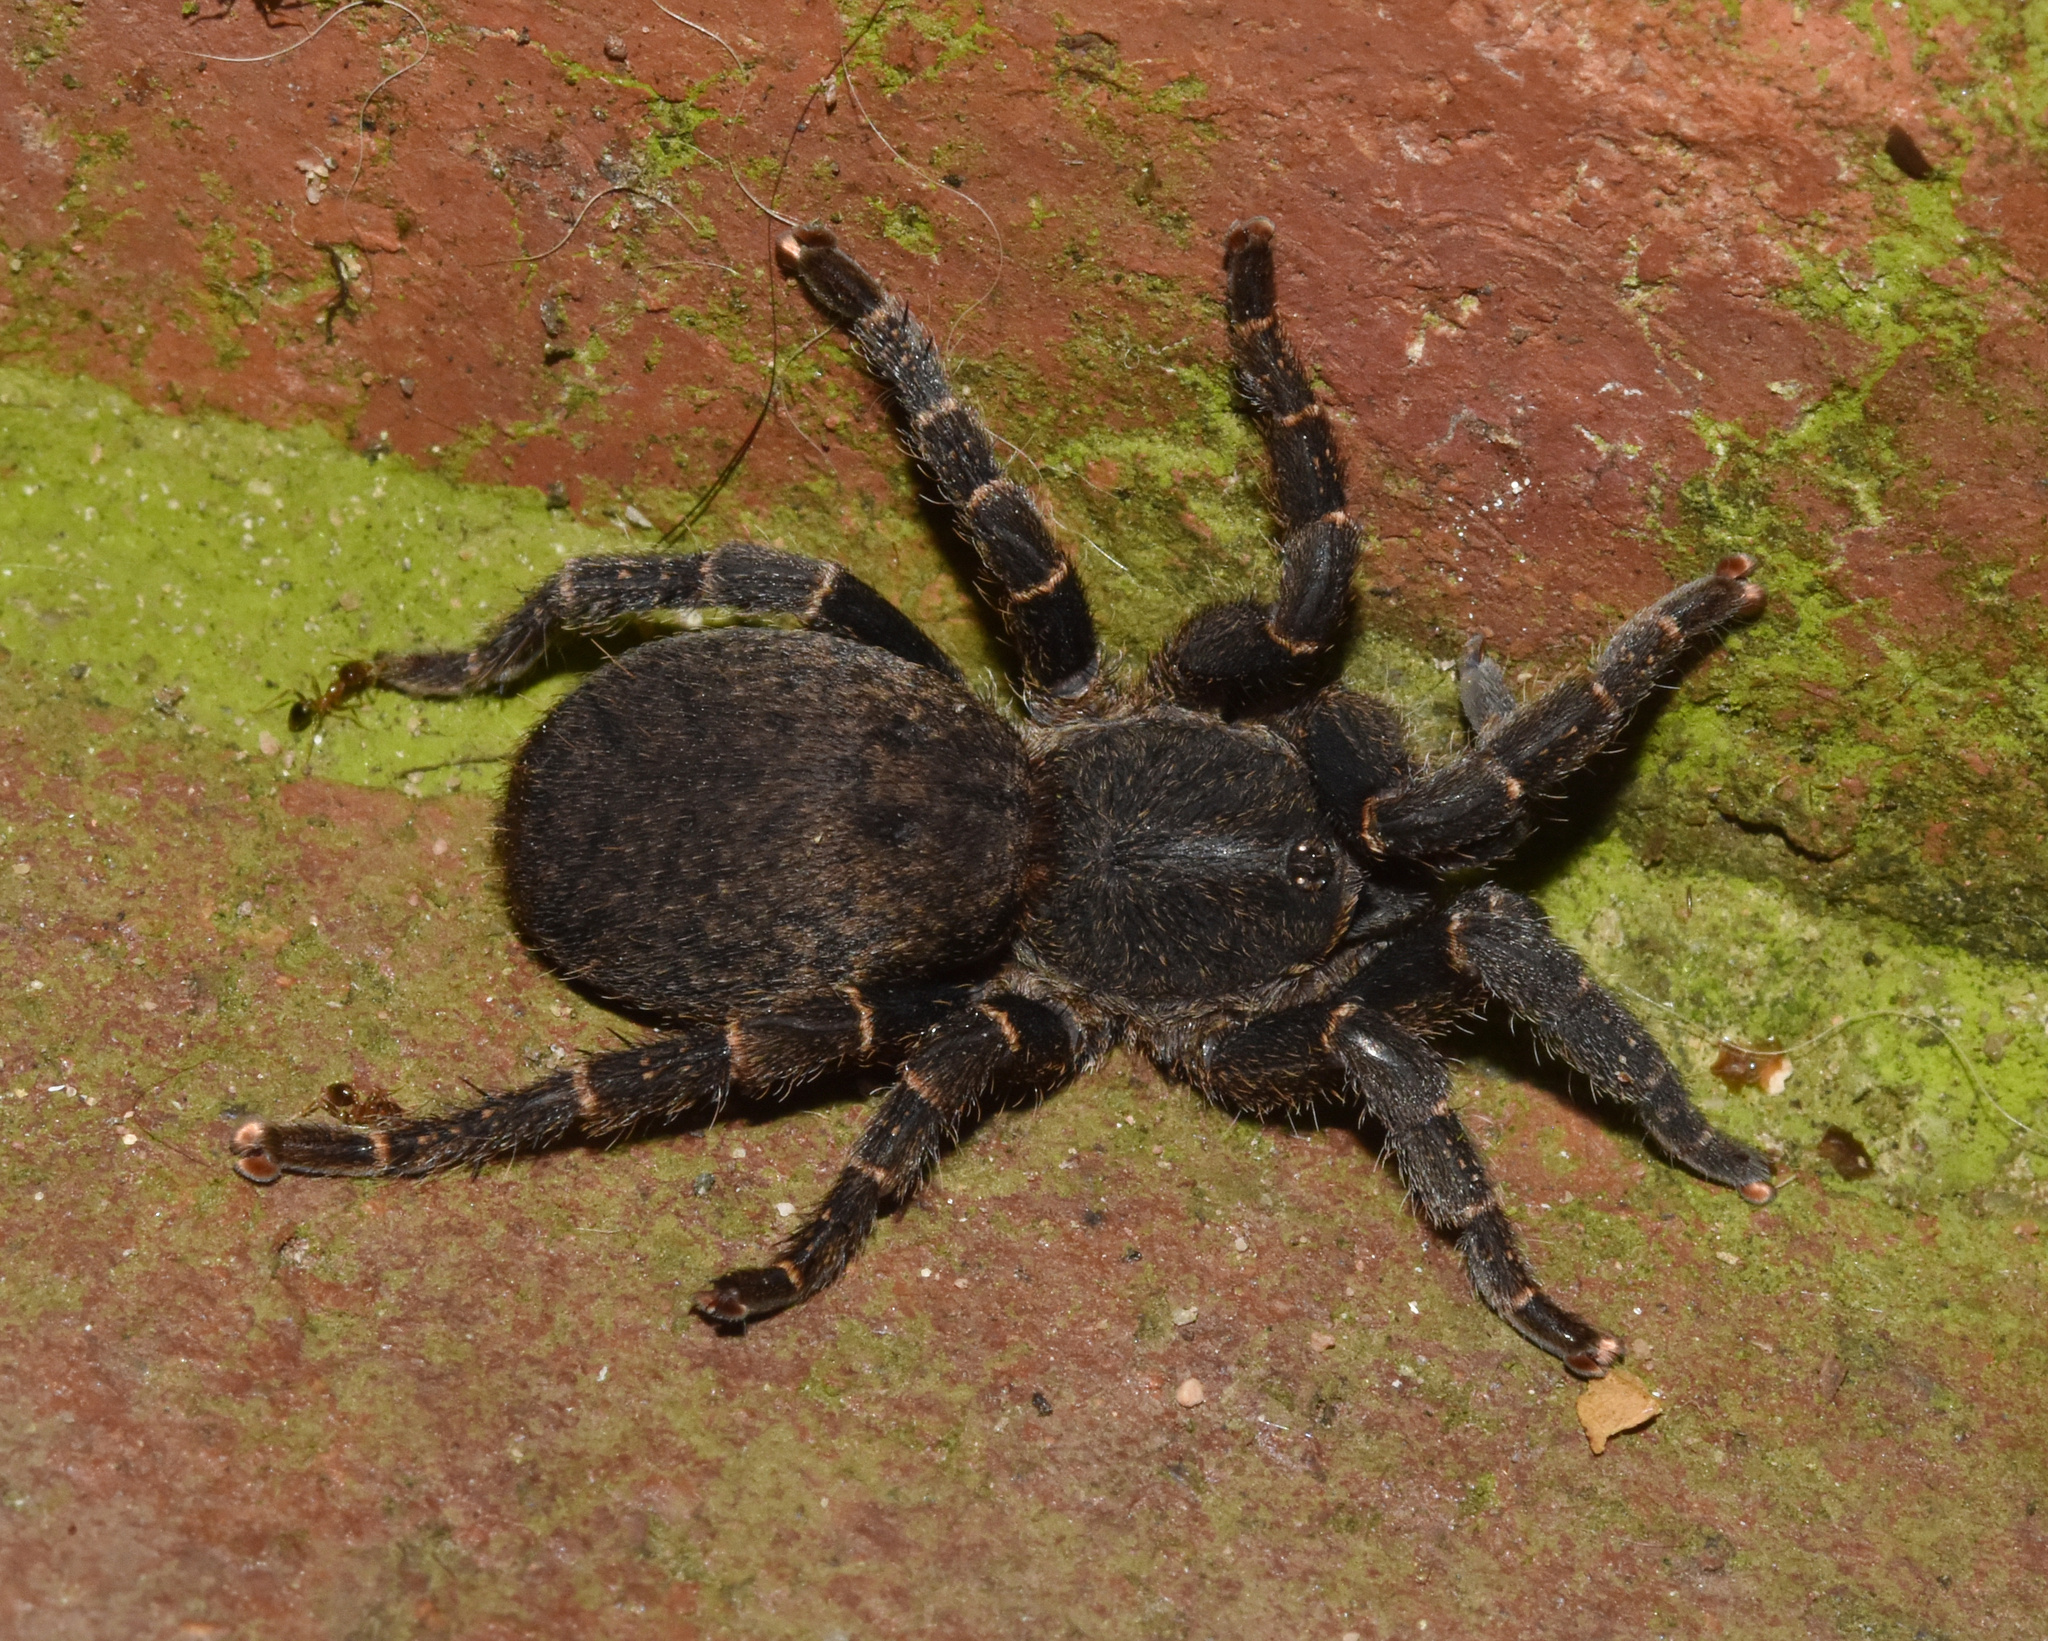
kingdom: Animalia
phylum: Arthropoda
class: Arachnida
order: Araneae
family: Theraphosidae
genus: Brachionopus
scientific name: Brachionopus robustus
